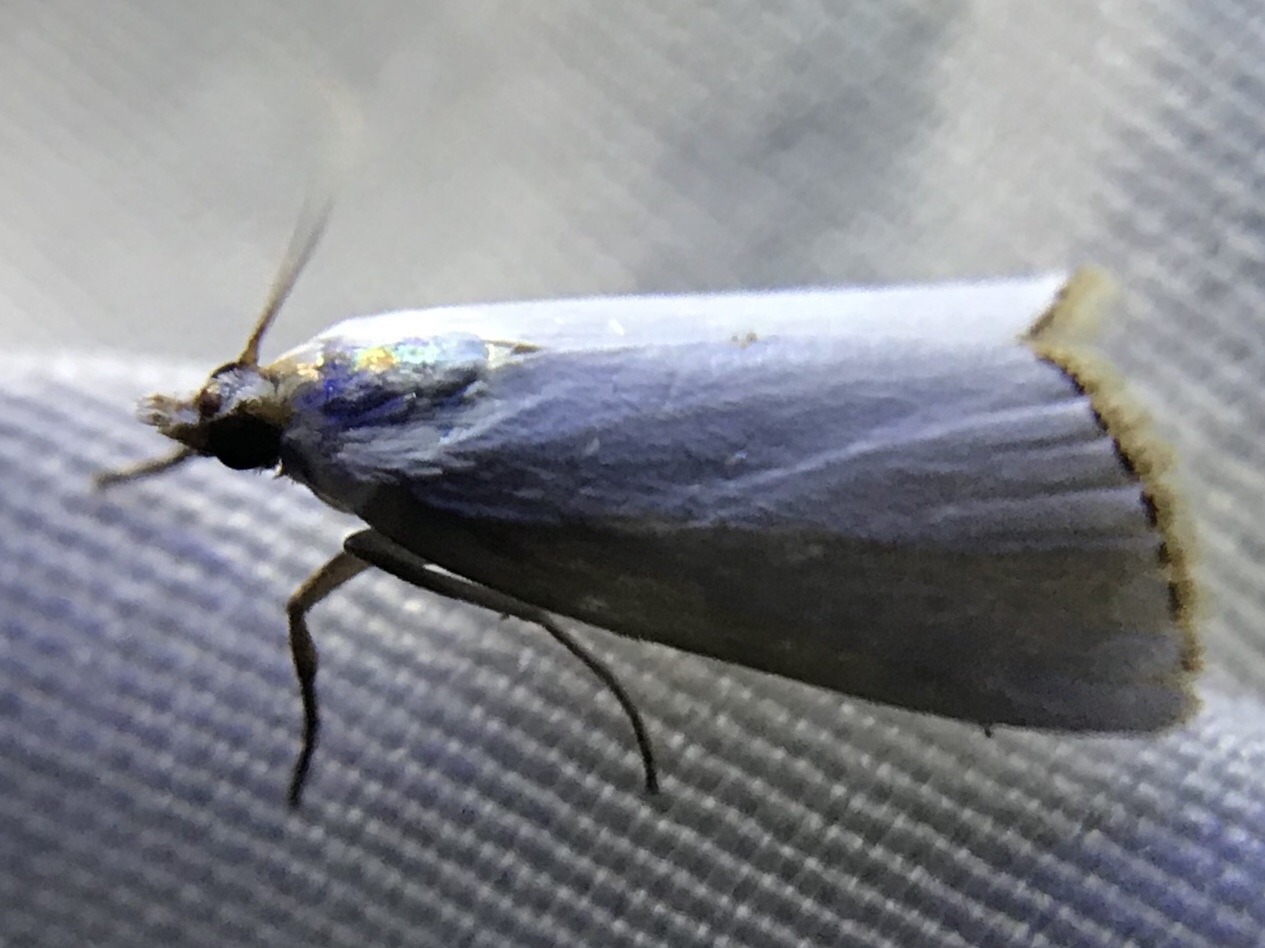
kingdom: Animalia
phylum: Arthropoda
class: Insecta
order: Lepidoptera
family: Crambidae
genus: Argyria
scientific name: Argyria nivalis
